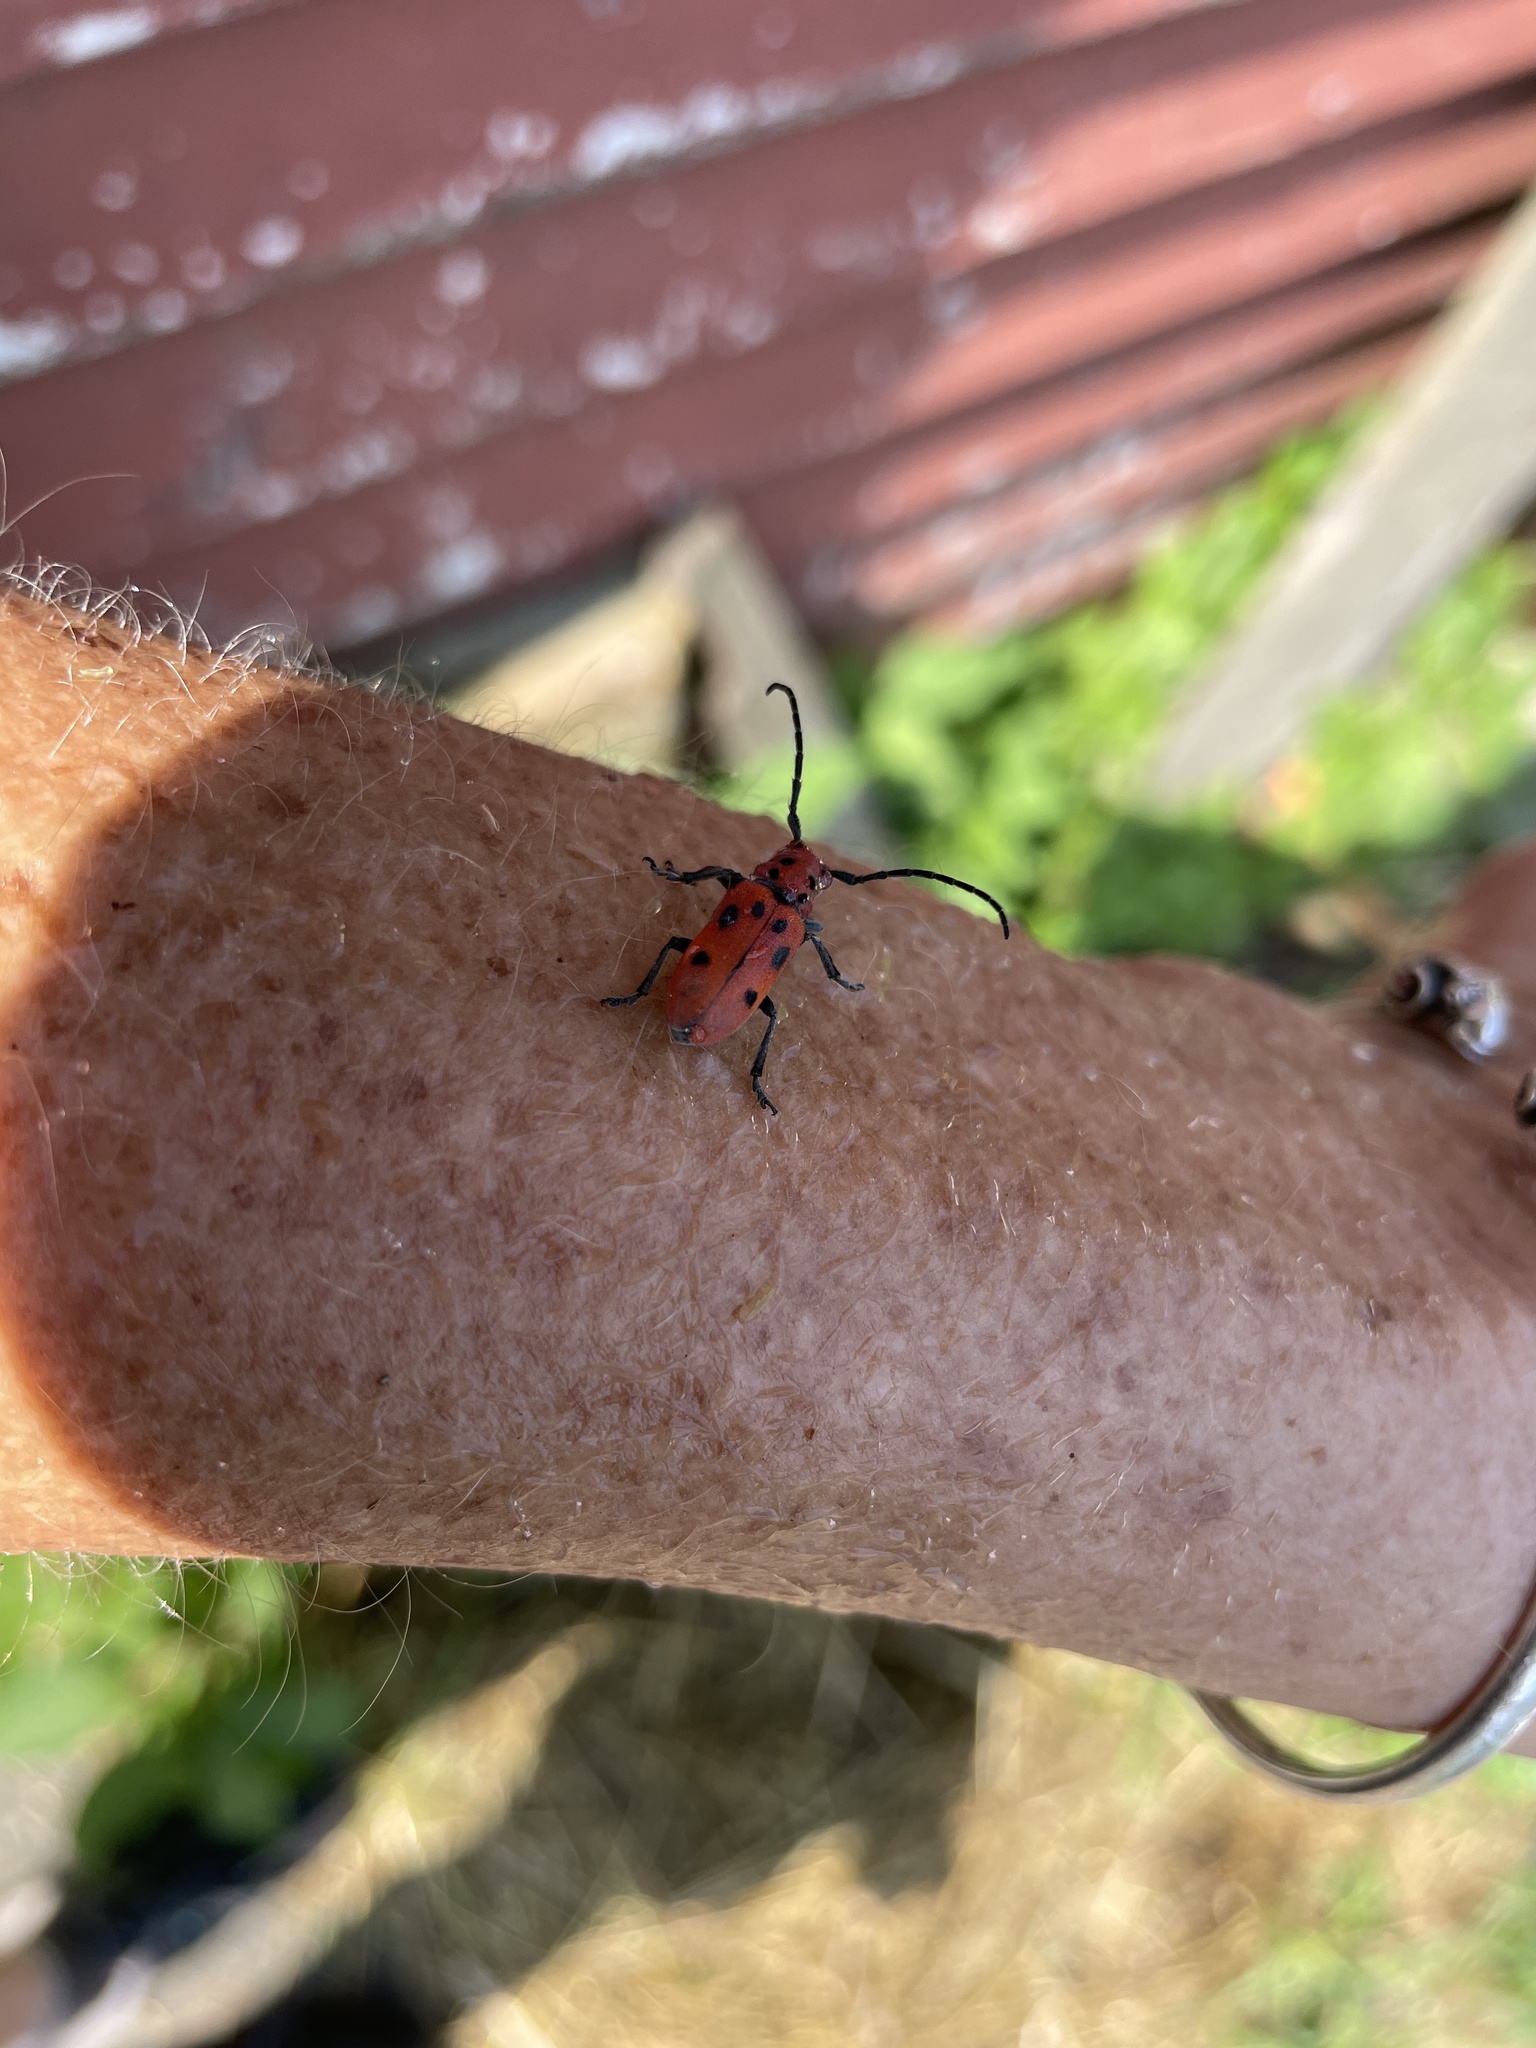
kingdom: Animalia
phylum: Arthropoda
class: Insecta
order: Coleoptera
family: Cerambycidae
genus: Tetraopes
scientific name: Tetraopes tetrophthalmus
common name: Red milkweed beetle
